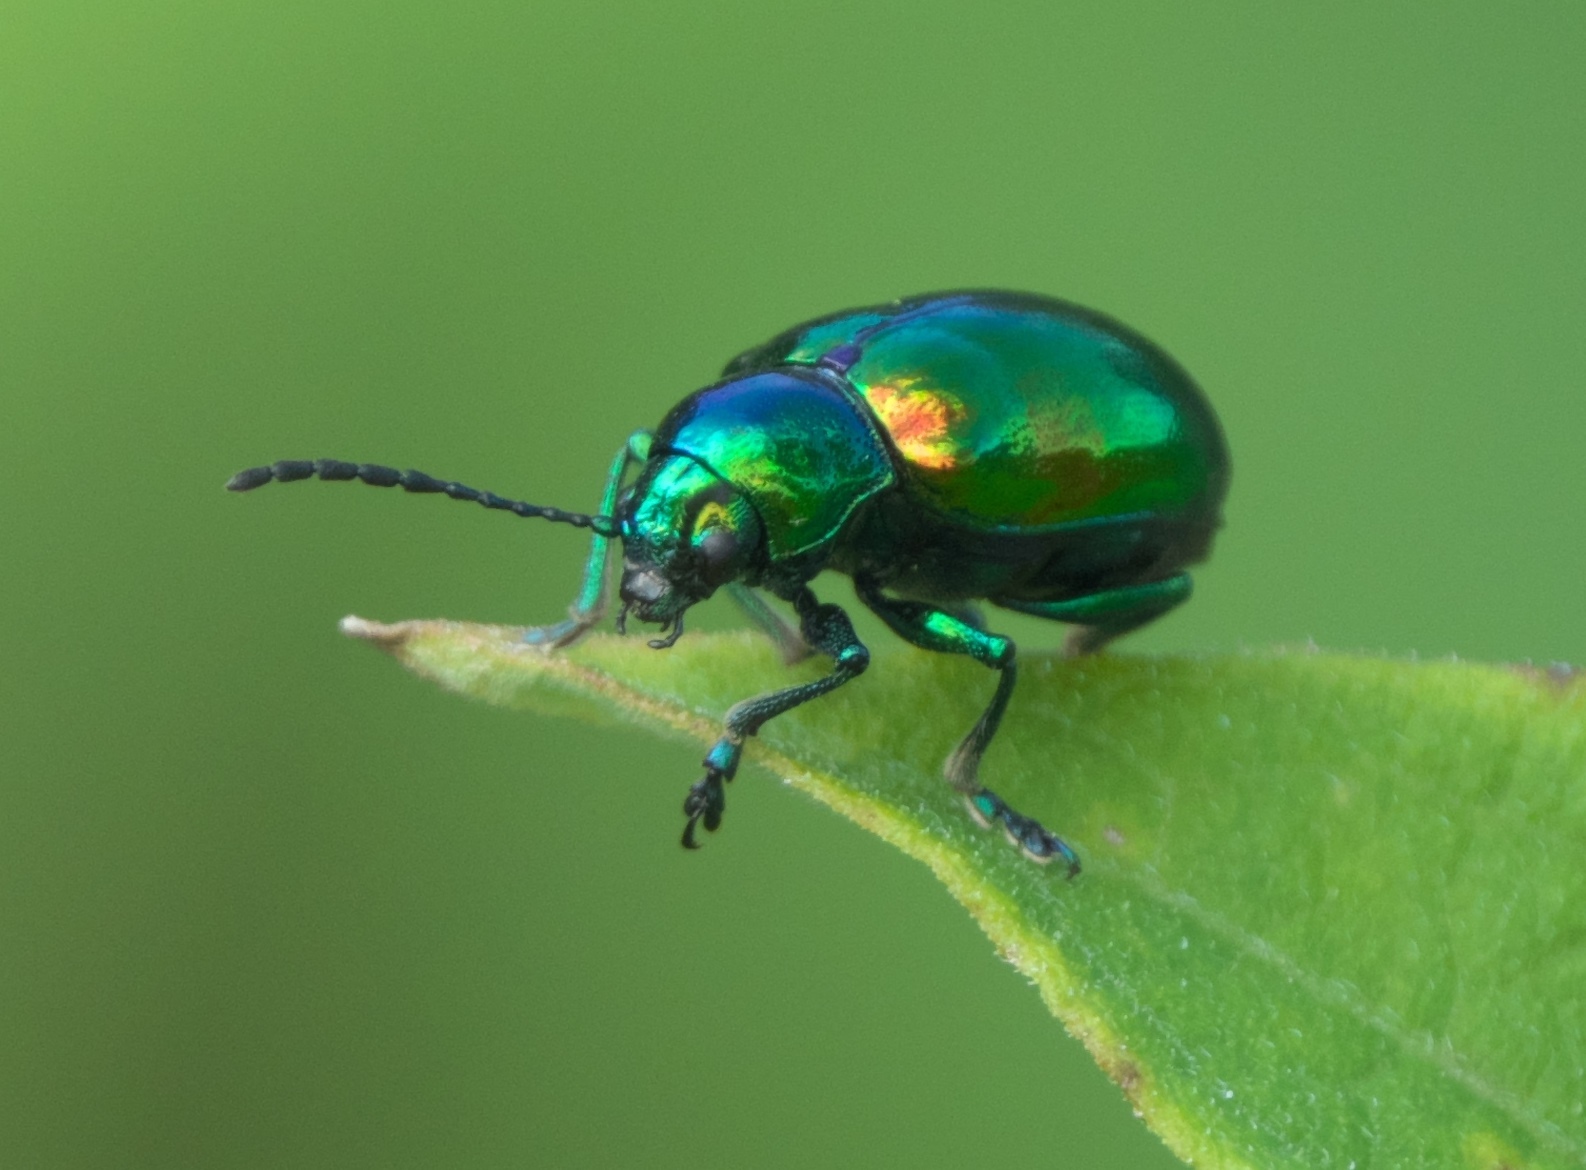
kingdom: Animalia
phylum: Arthropoda
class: Insecta
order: Coleoptera
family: Chrysomelidae
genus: Chrysochus
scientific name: Chrysochus auratus
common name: Dogbane leaf beetle
